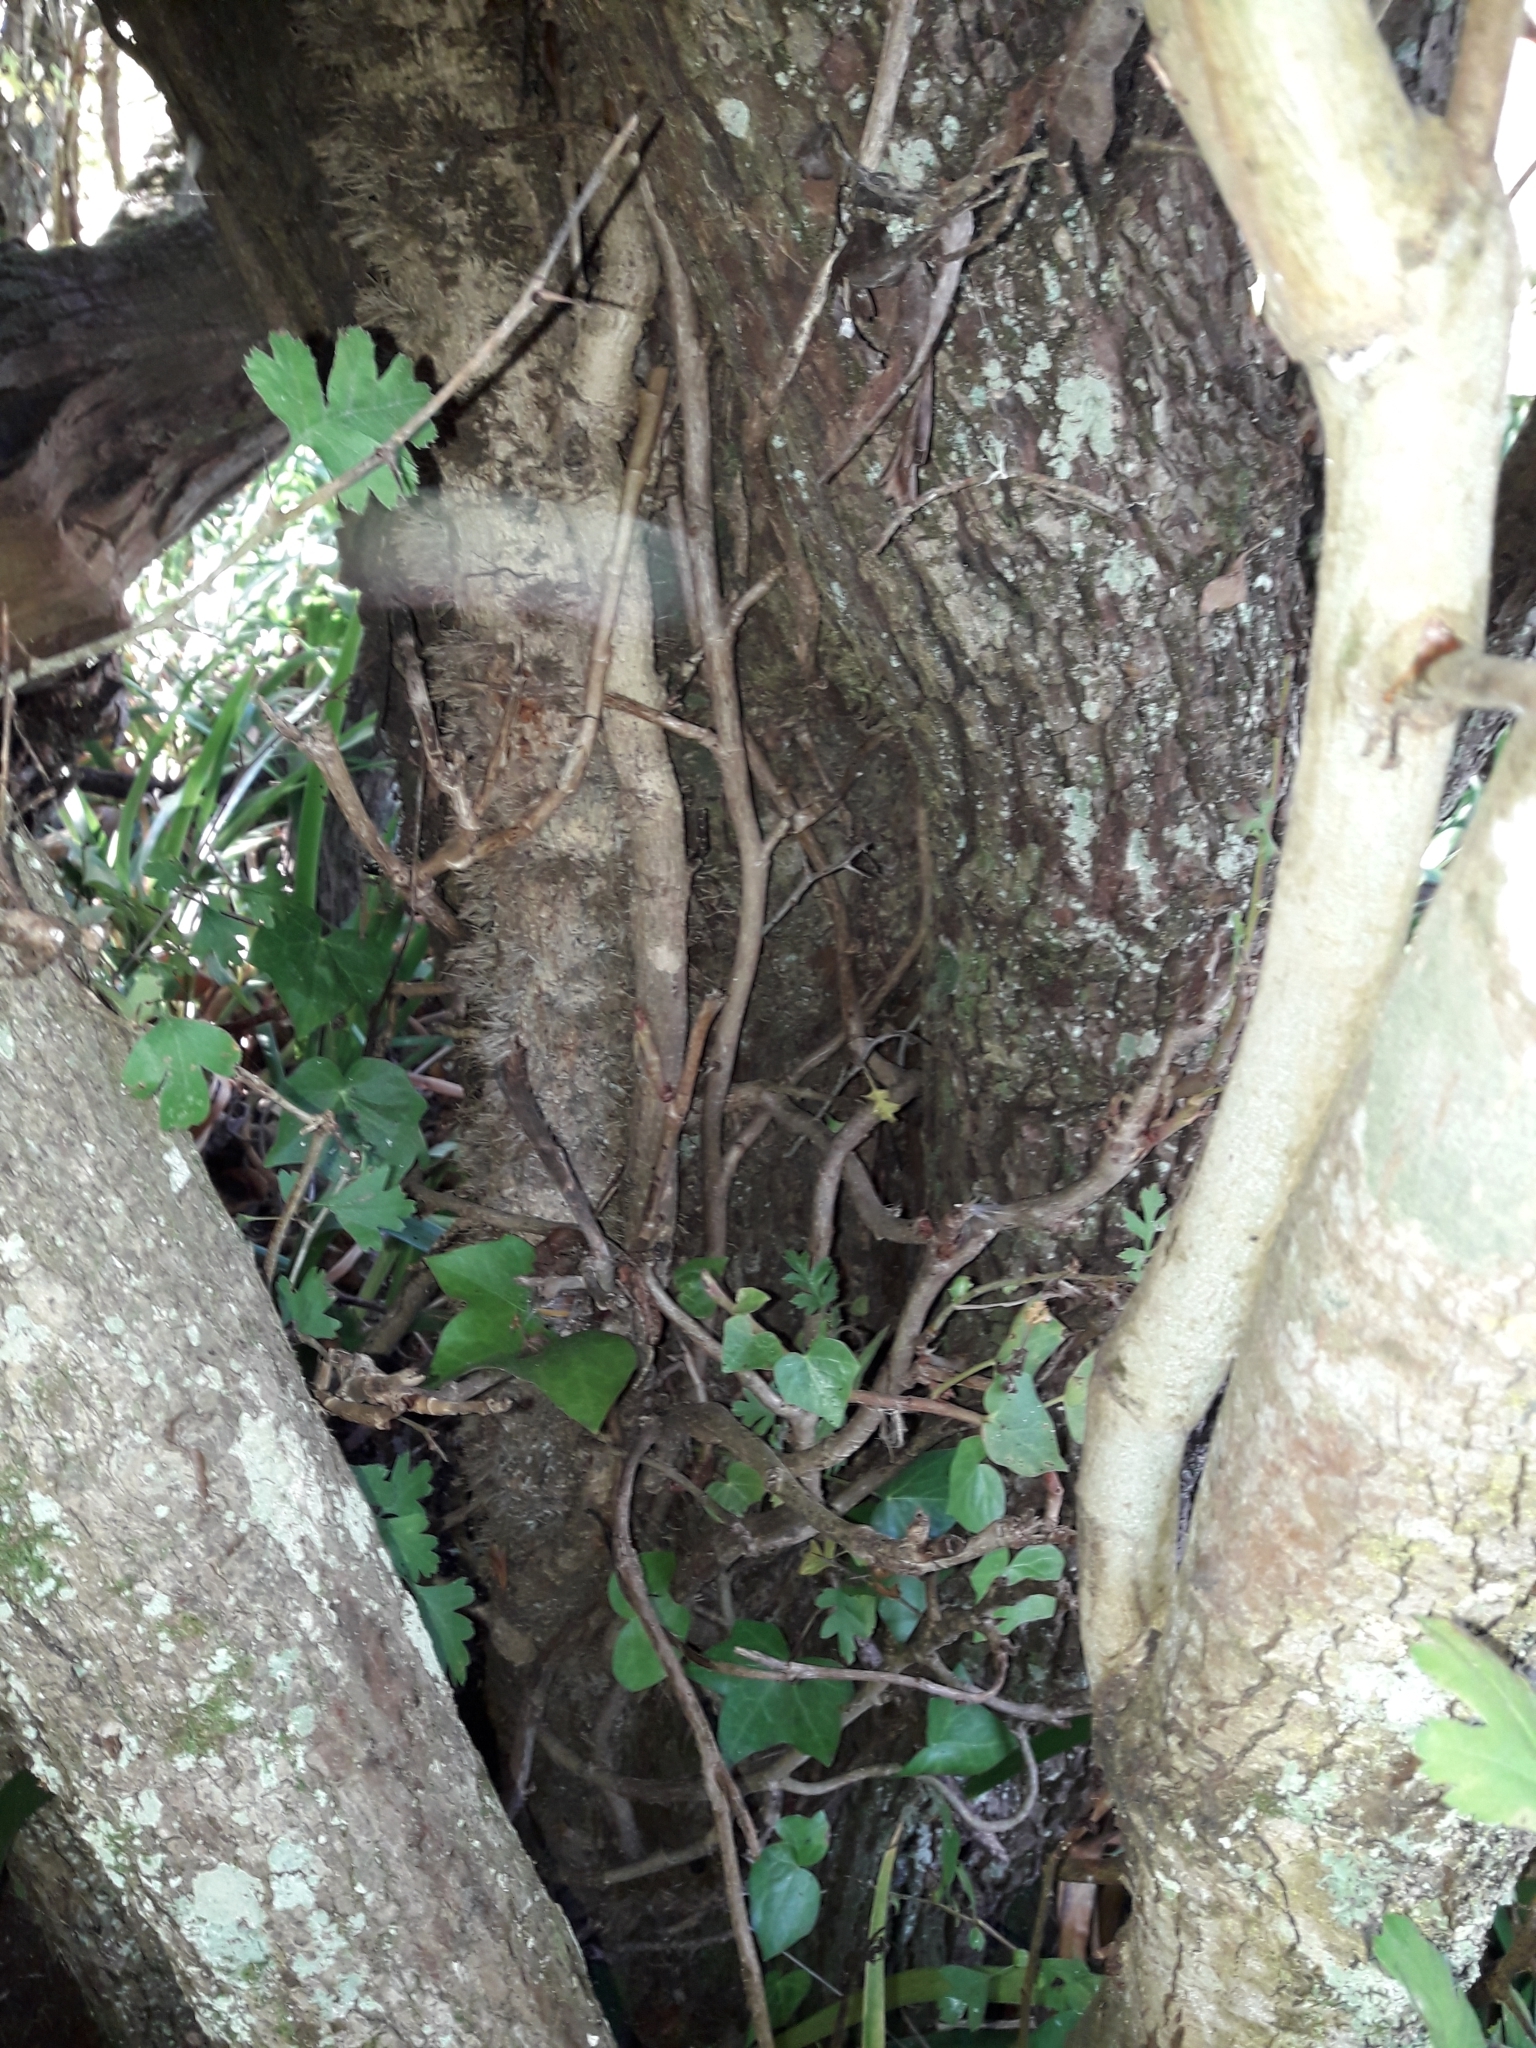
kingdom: Plantae
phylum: Tracheophyta
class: Magnoliopsida
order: Apiales
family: Araliaceae
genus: Hedera
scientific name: Hedera helix
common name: Ivy
